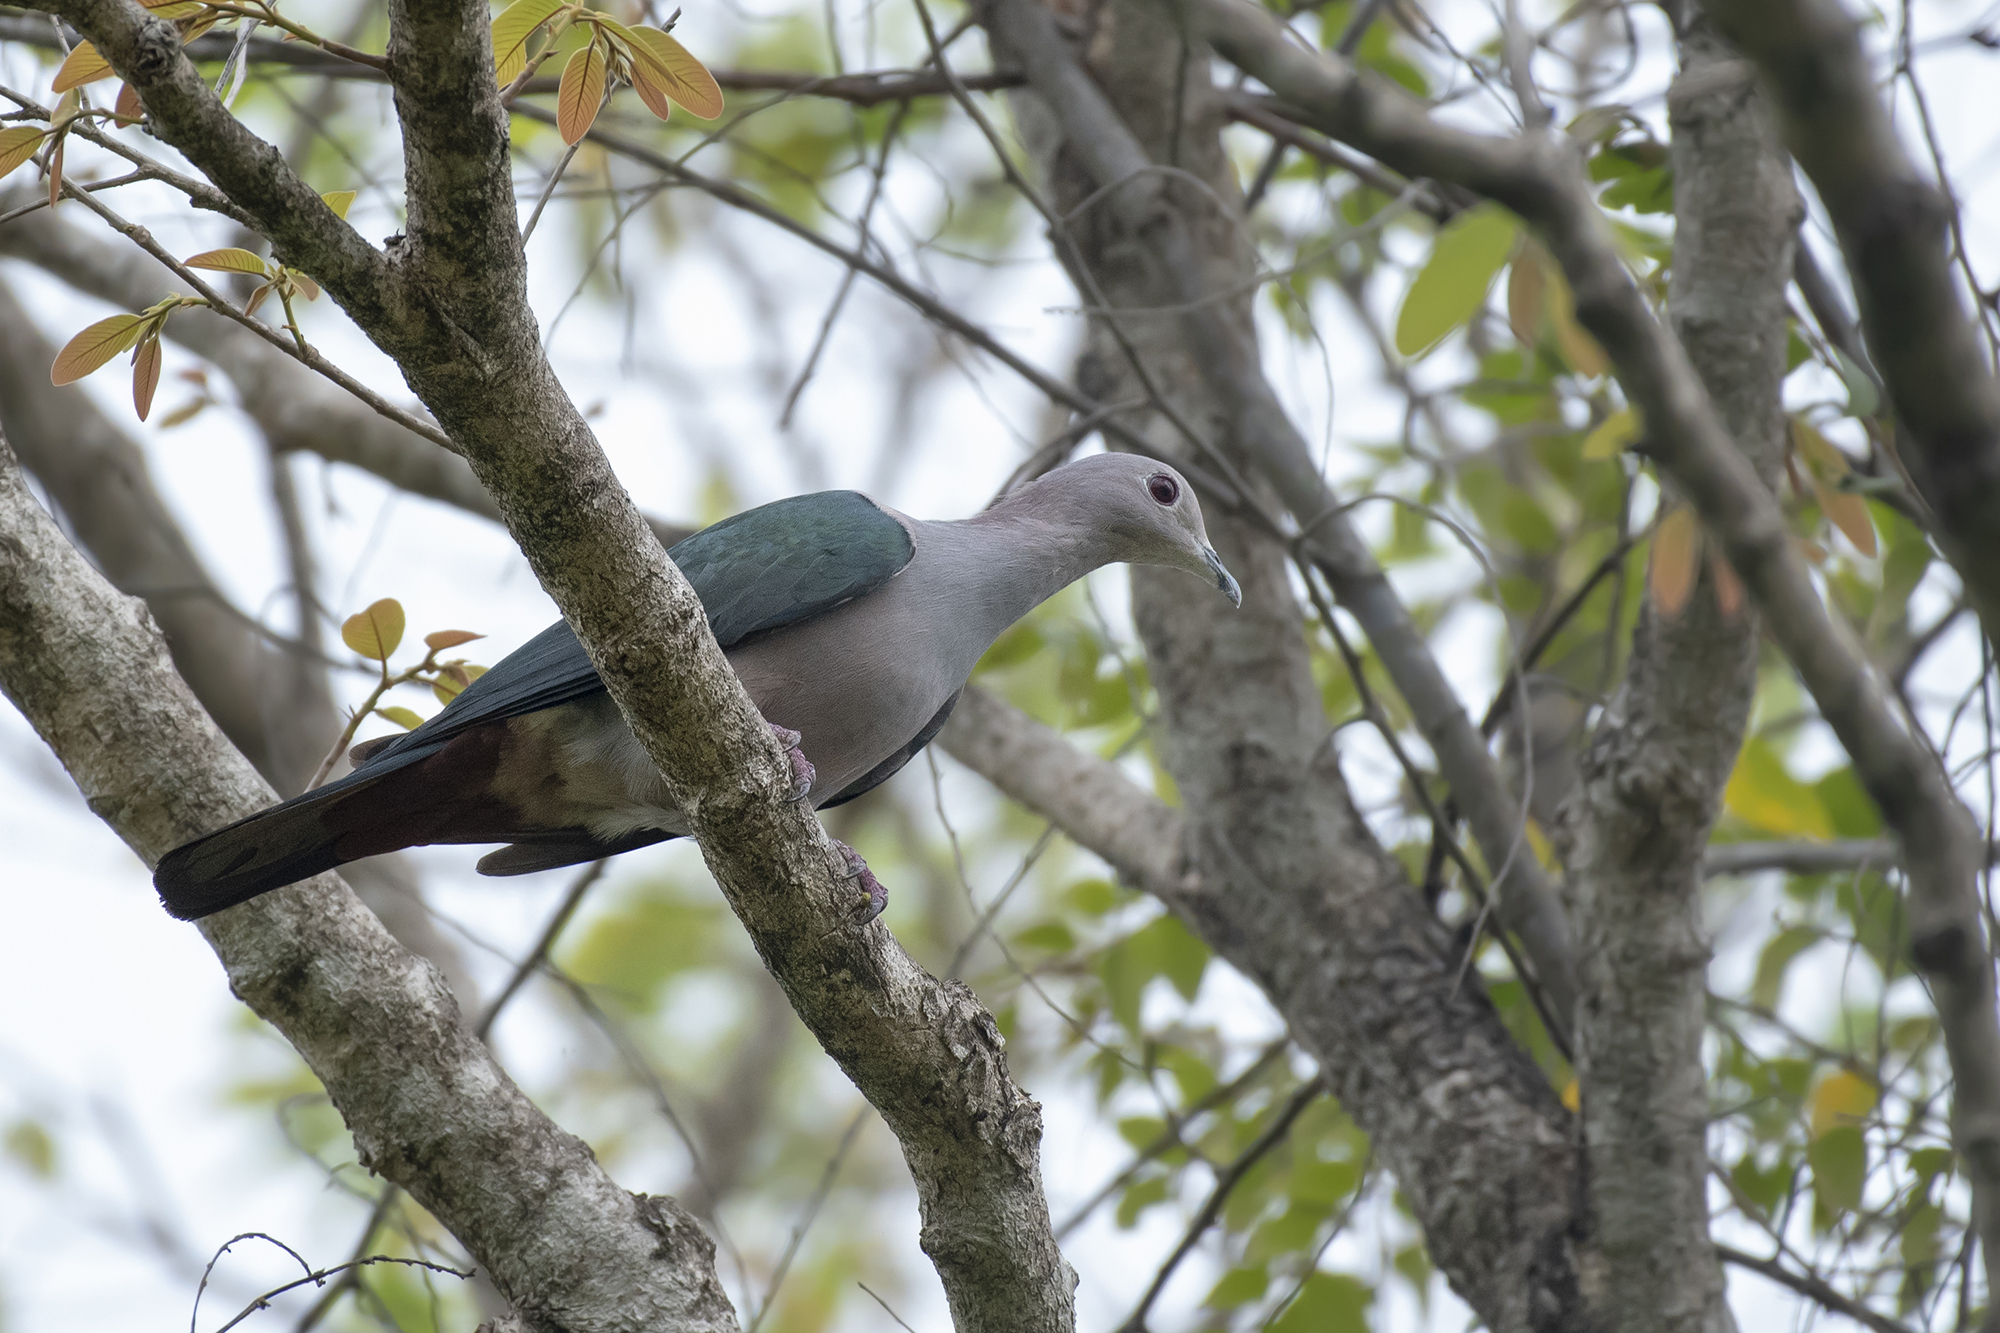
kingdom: Animalia
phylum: Chordata
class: Aves
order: Columbiformes
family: Columbidae
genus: Ducula
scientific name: Ducula aenea
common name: Green imperial pigeon
